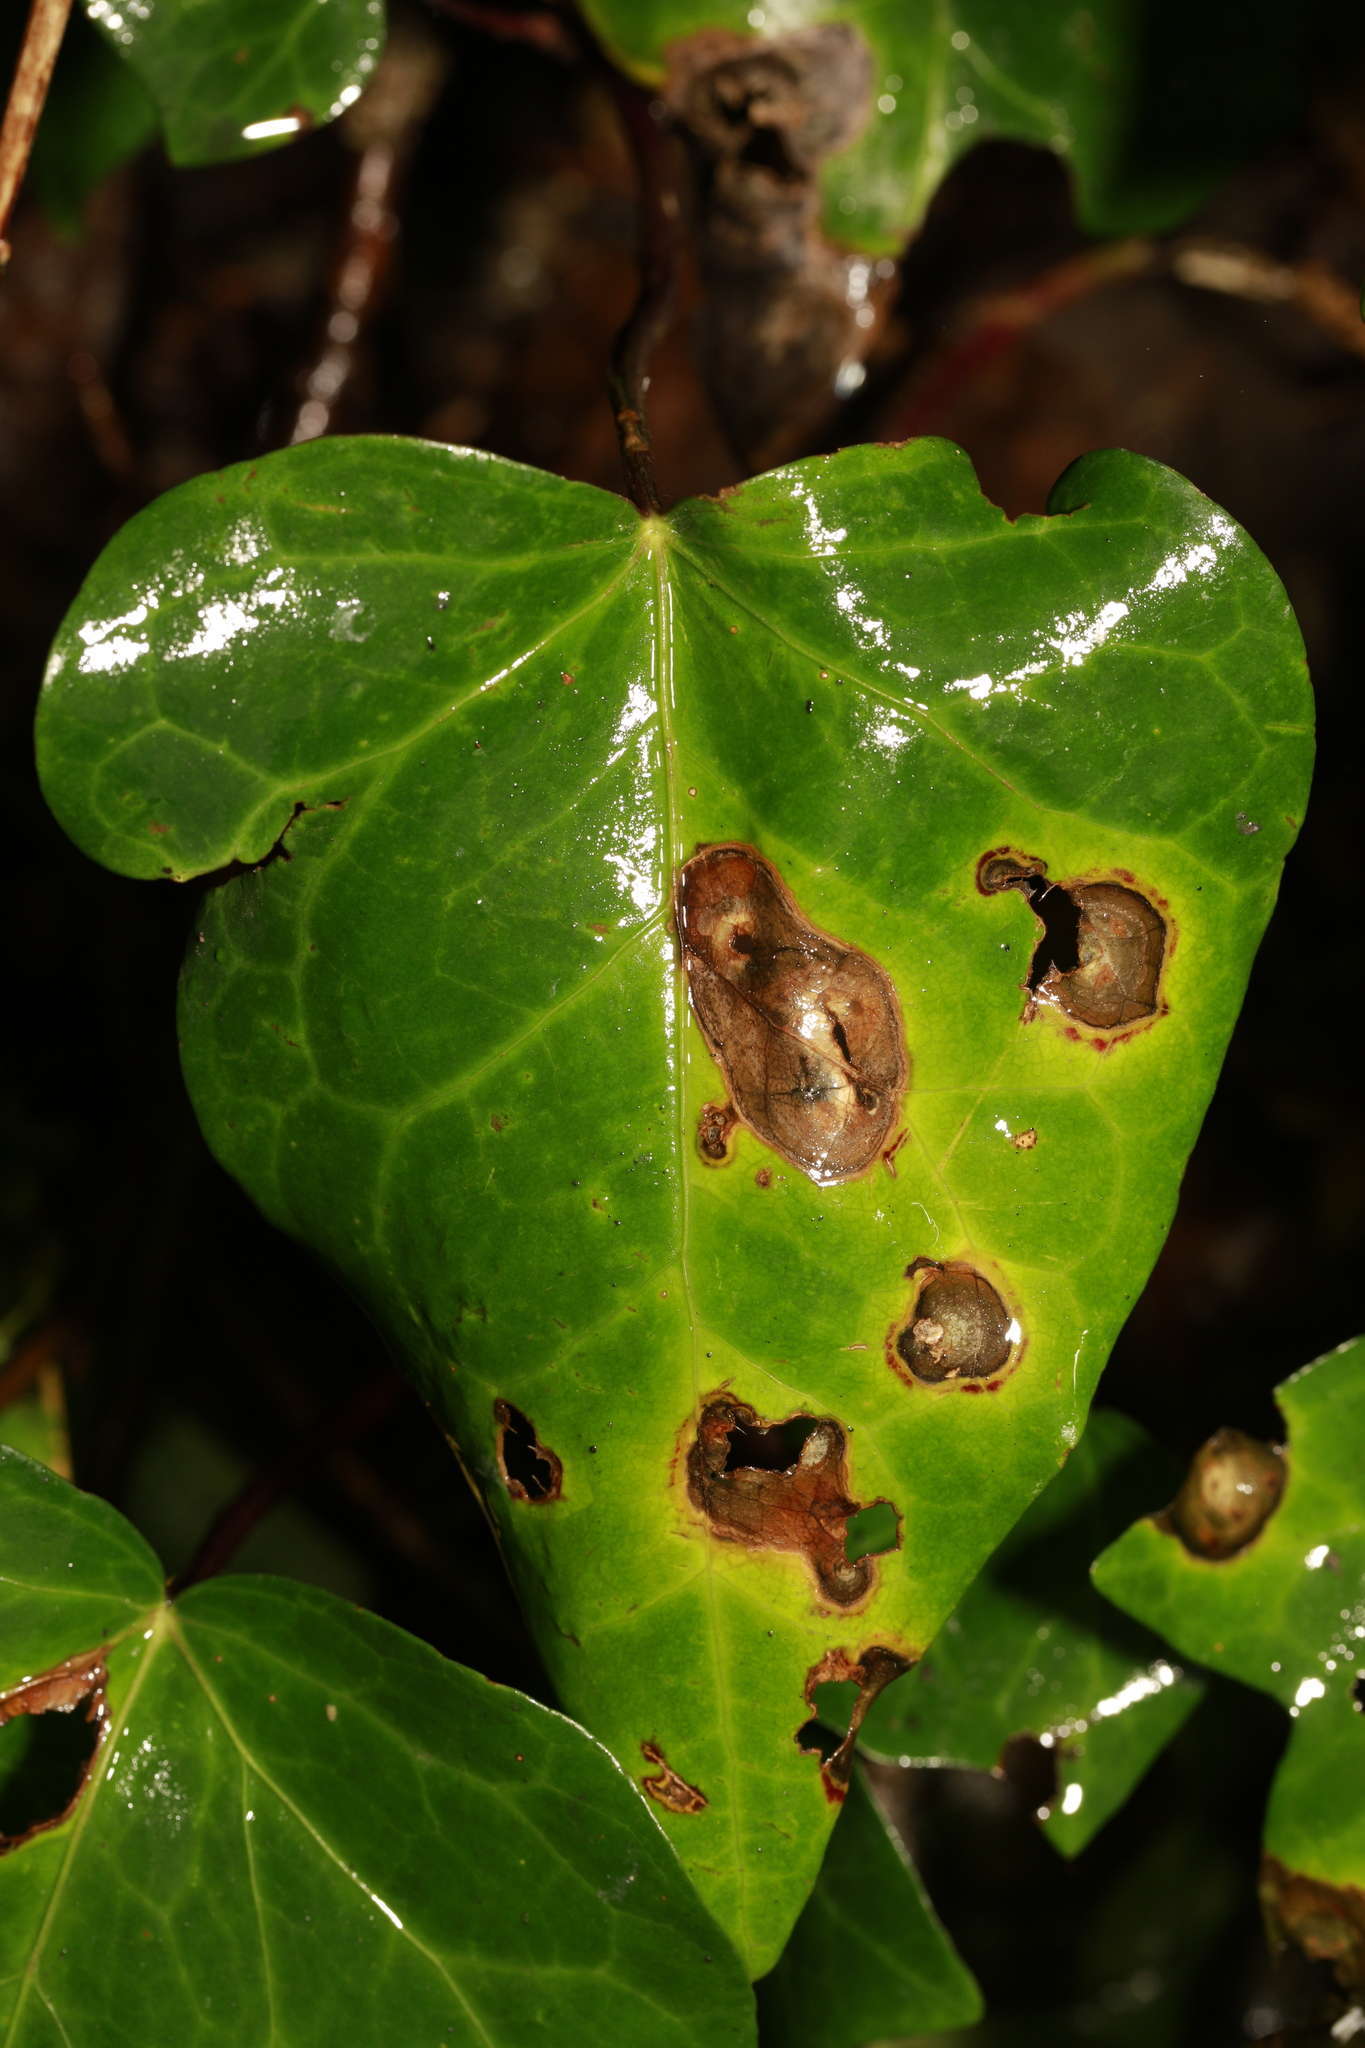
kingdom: Fungi
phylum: Ascomycota
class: Dothideomycetes
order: Pleosporales
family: Didymellaceae
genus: Boeremia
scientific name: Boeremia hedericola
